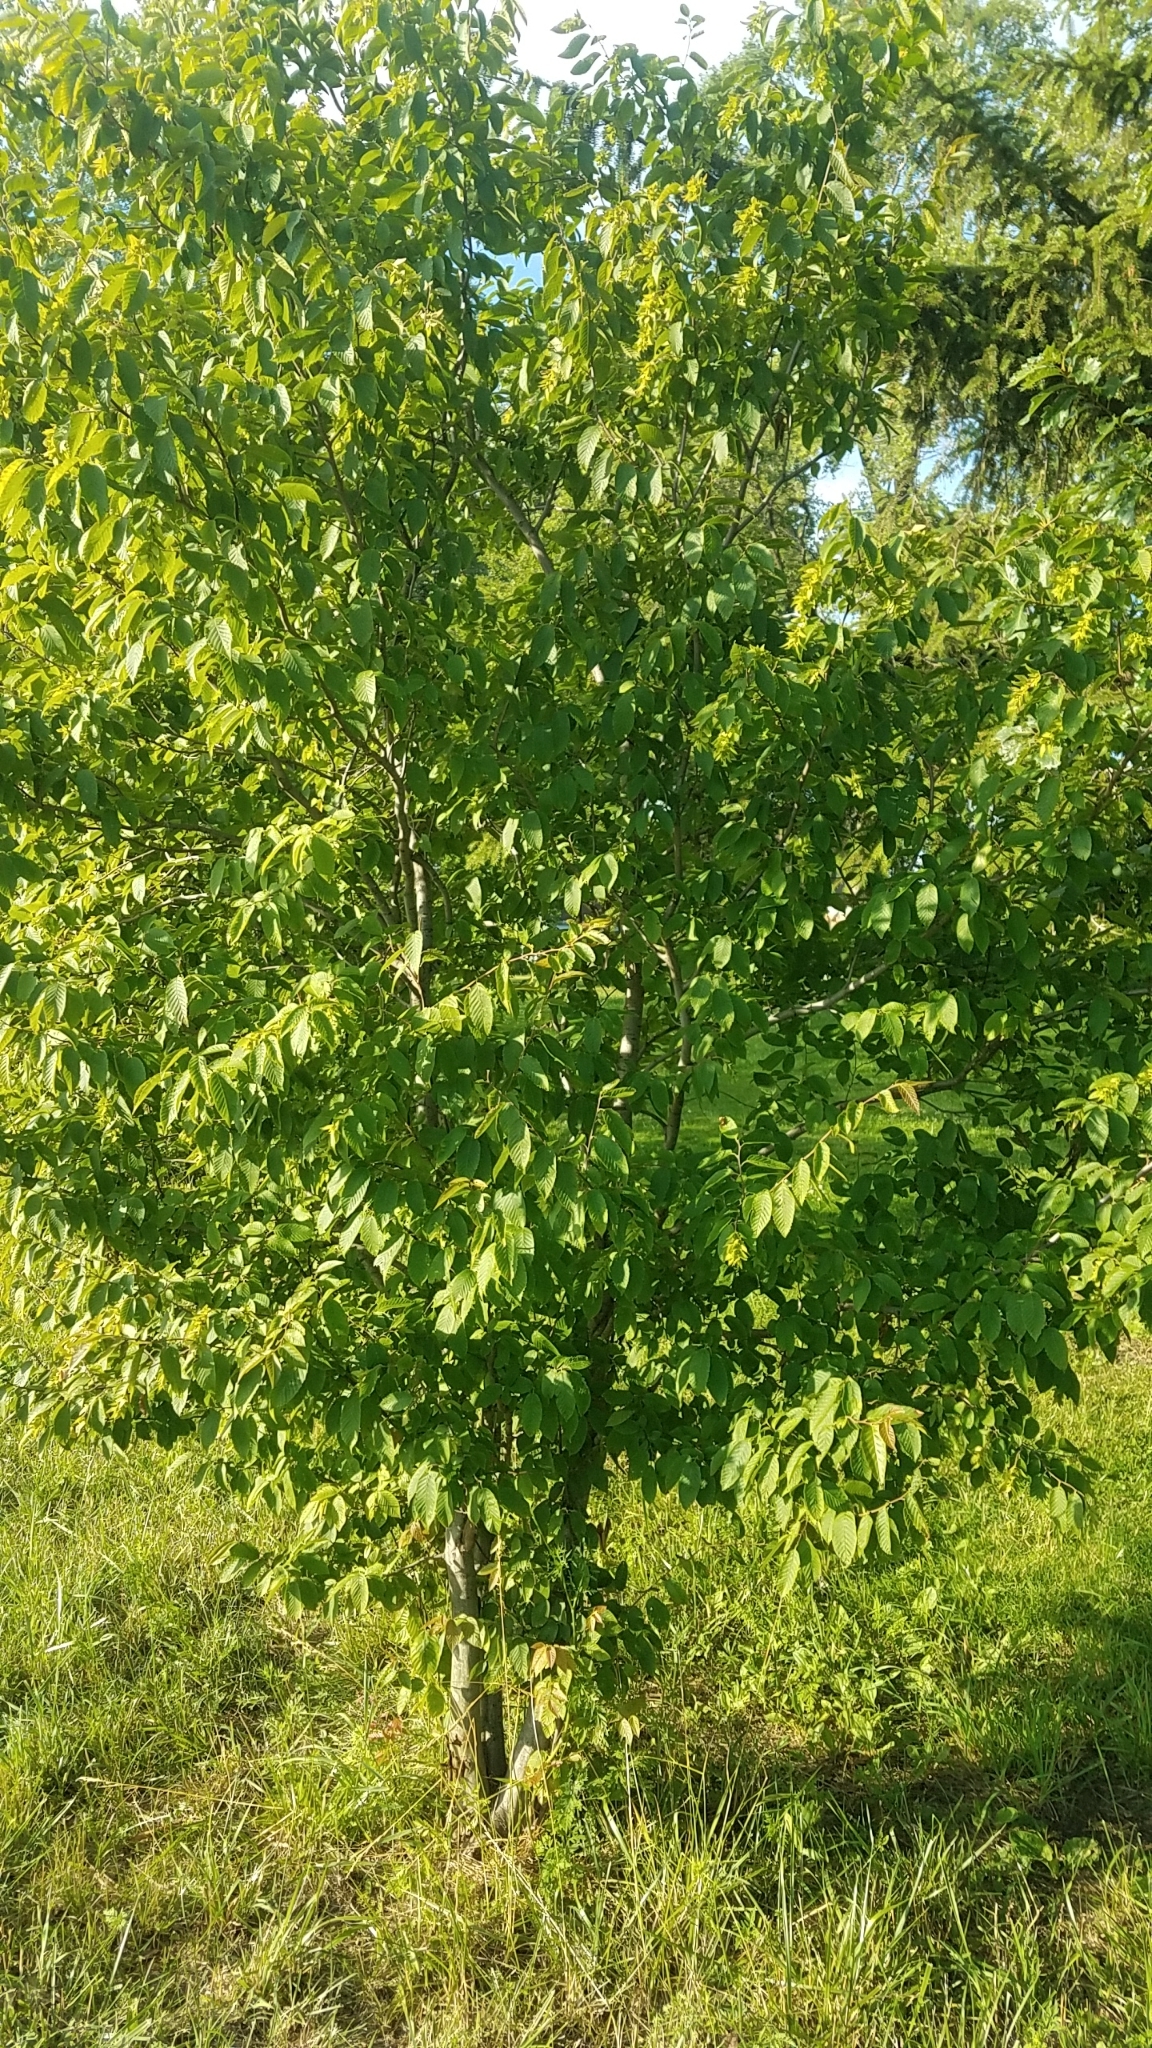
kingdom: Plantae
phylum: Tracheophyta
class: Magnoliopsida
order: Fagales
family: Betulaceae
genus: Carpinus
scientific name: Carpinus caroliniana
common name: American hornbeam
